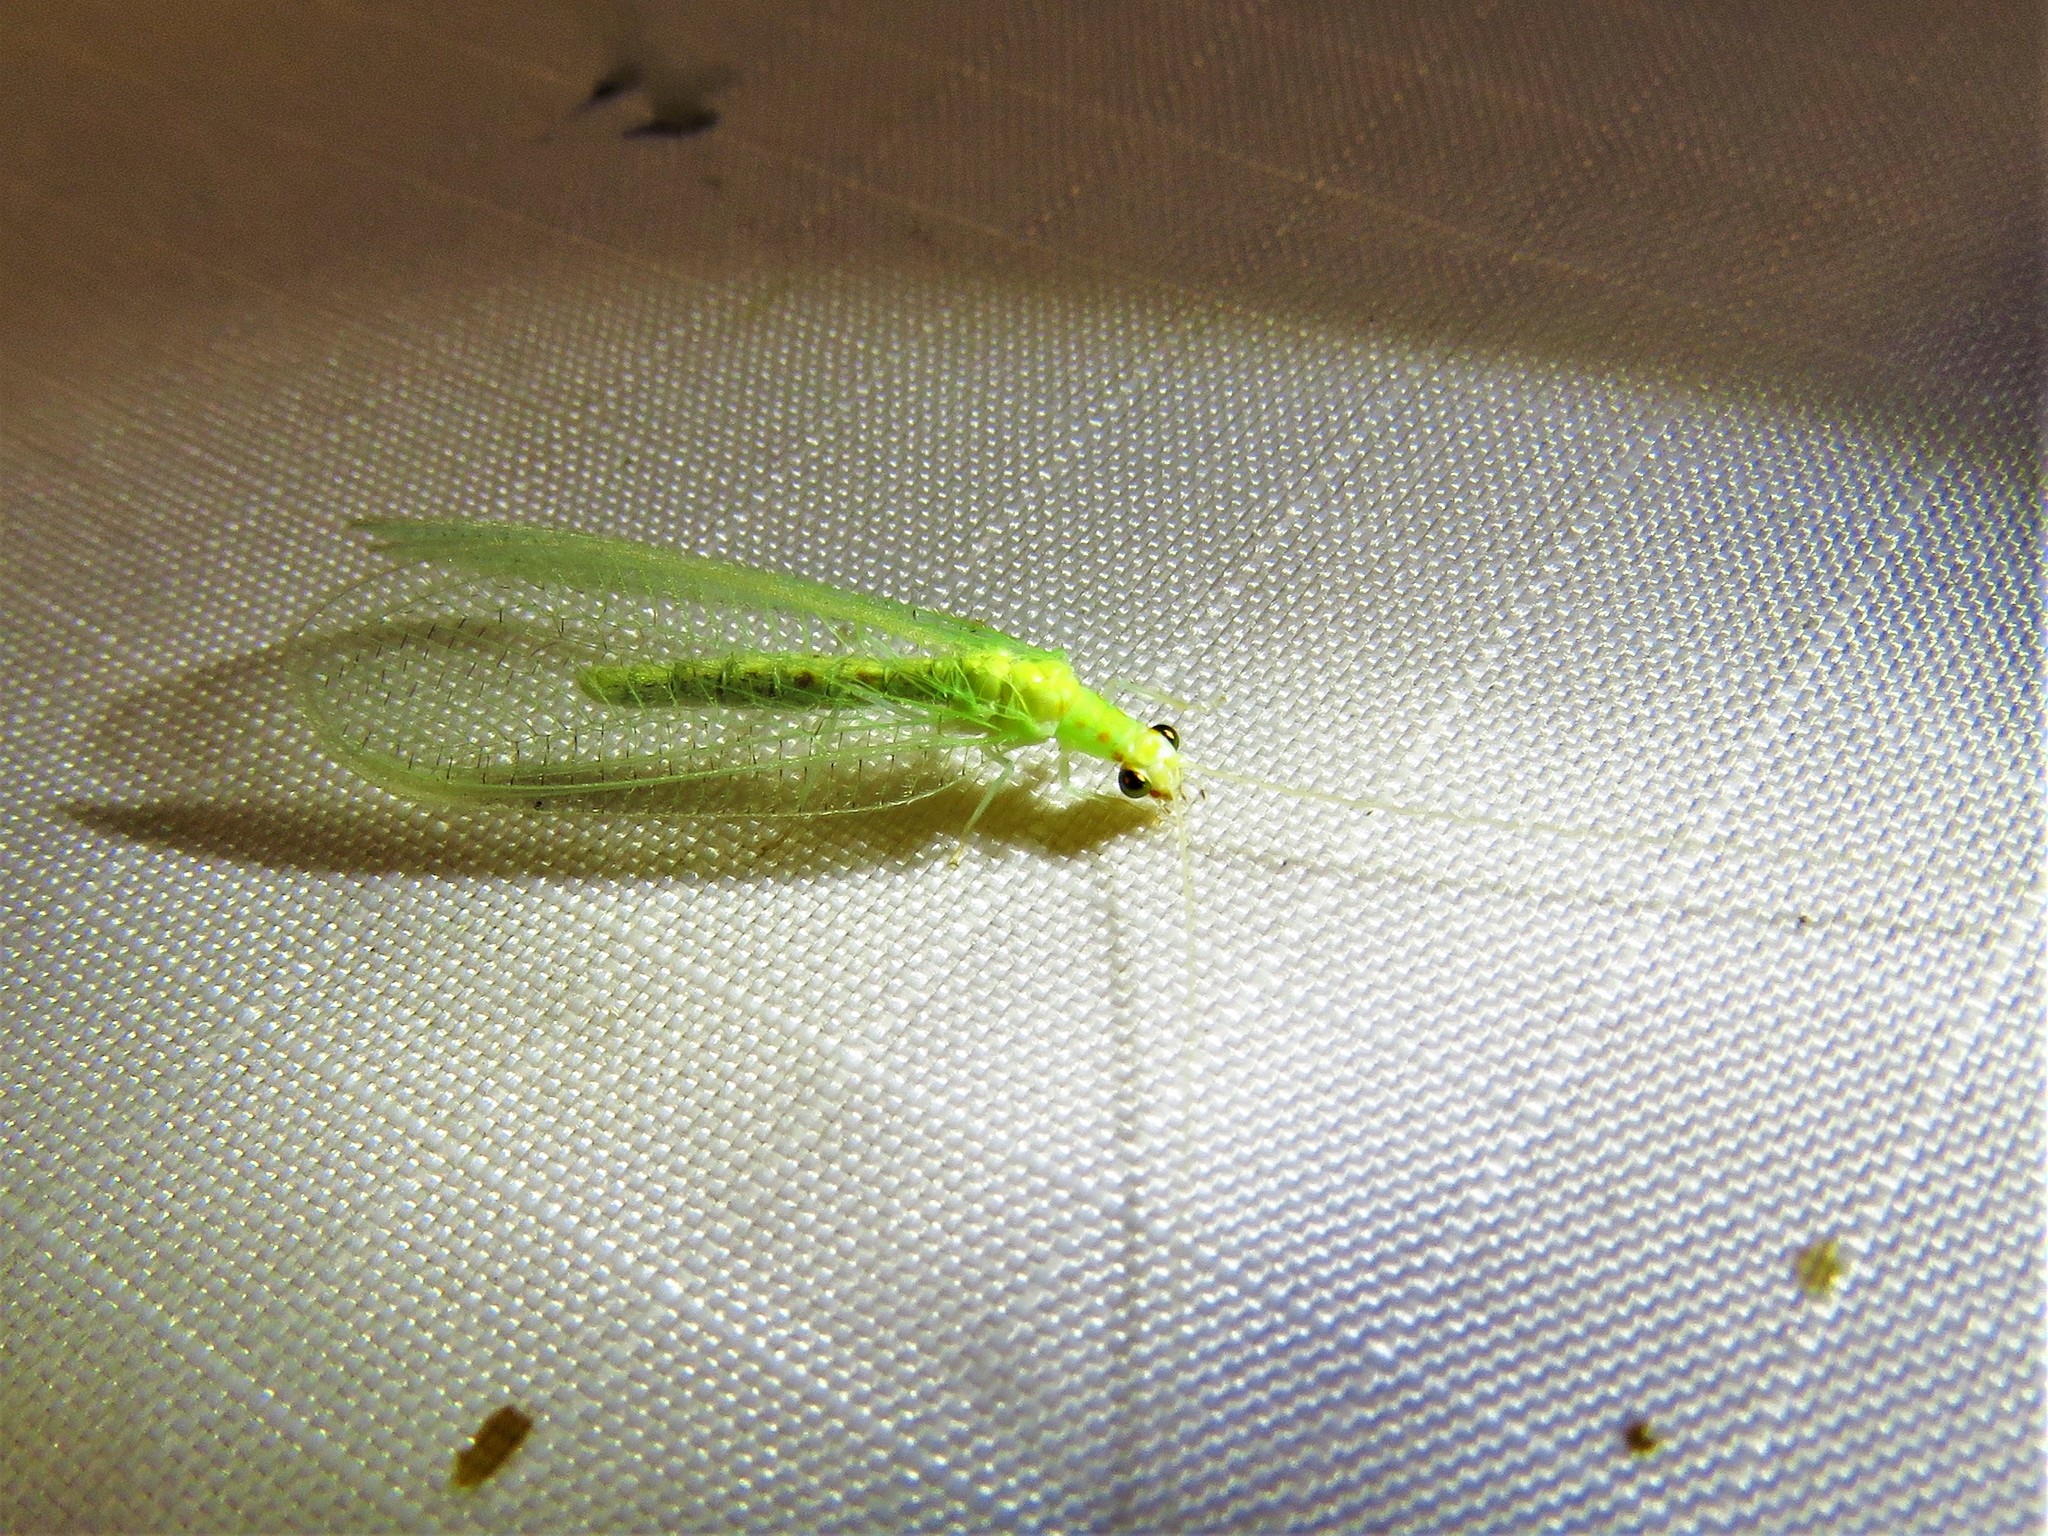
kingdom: Animalia
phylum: Arthropoda
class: Insecta
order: Neuroptera
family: Chrysopidae
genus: Chrysopa
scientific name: Chrysopa quadripunctata
